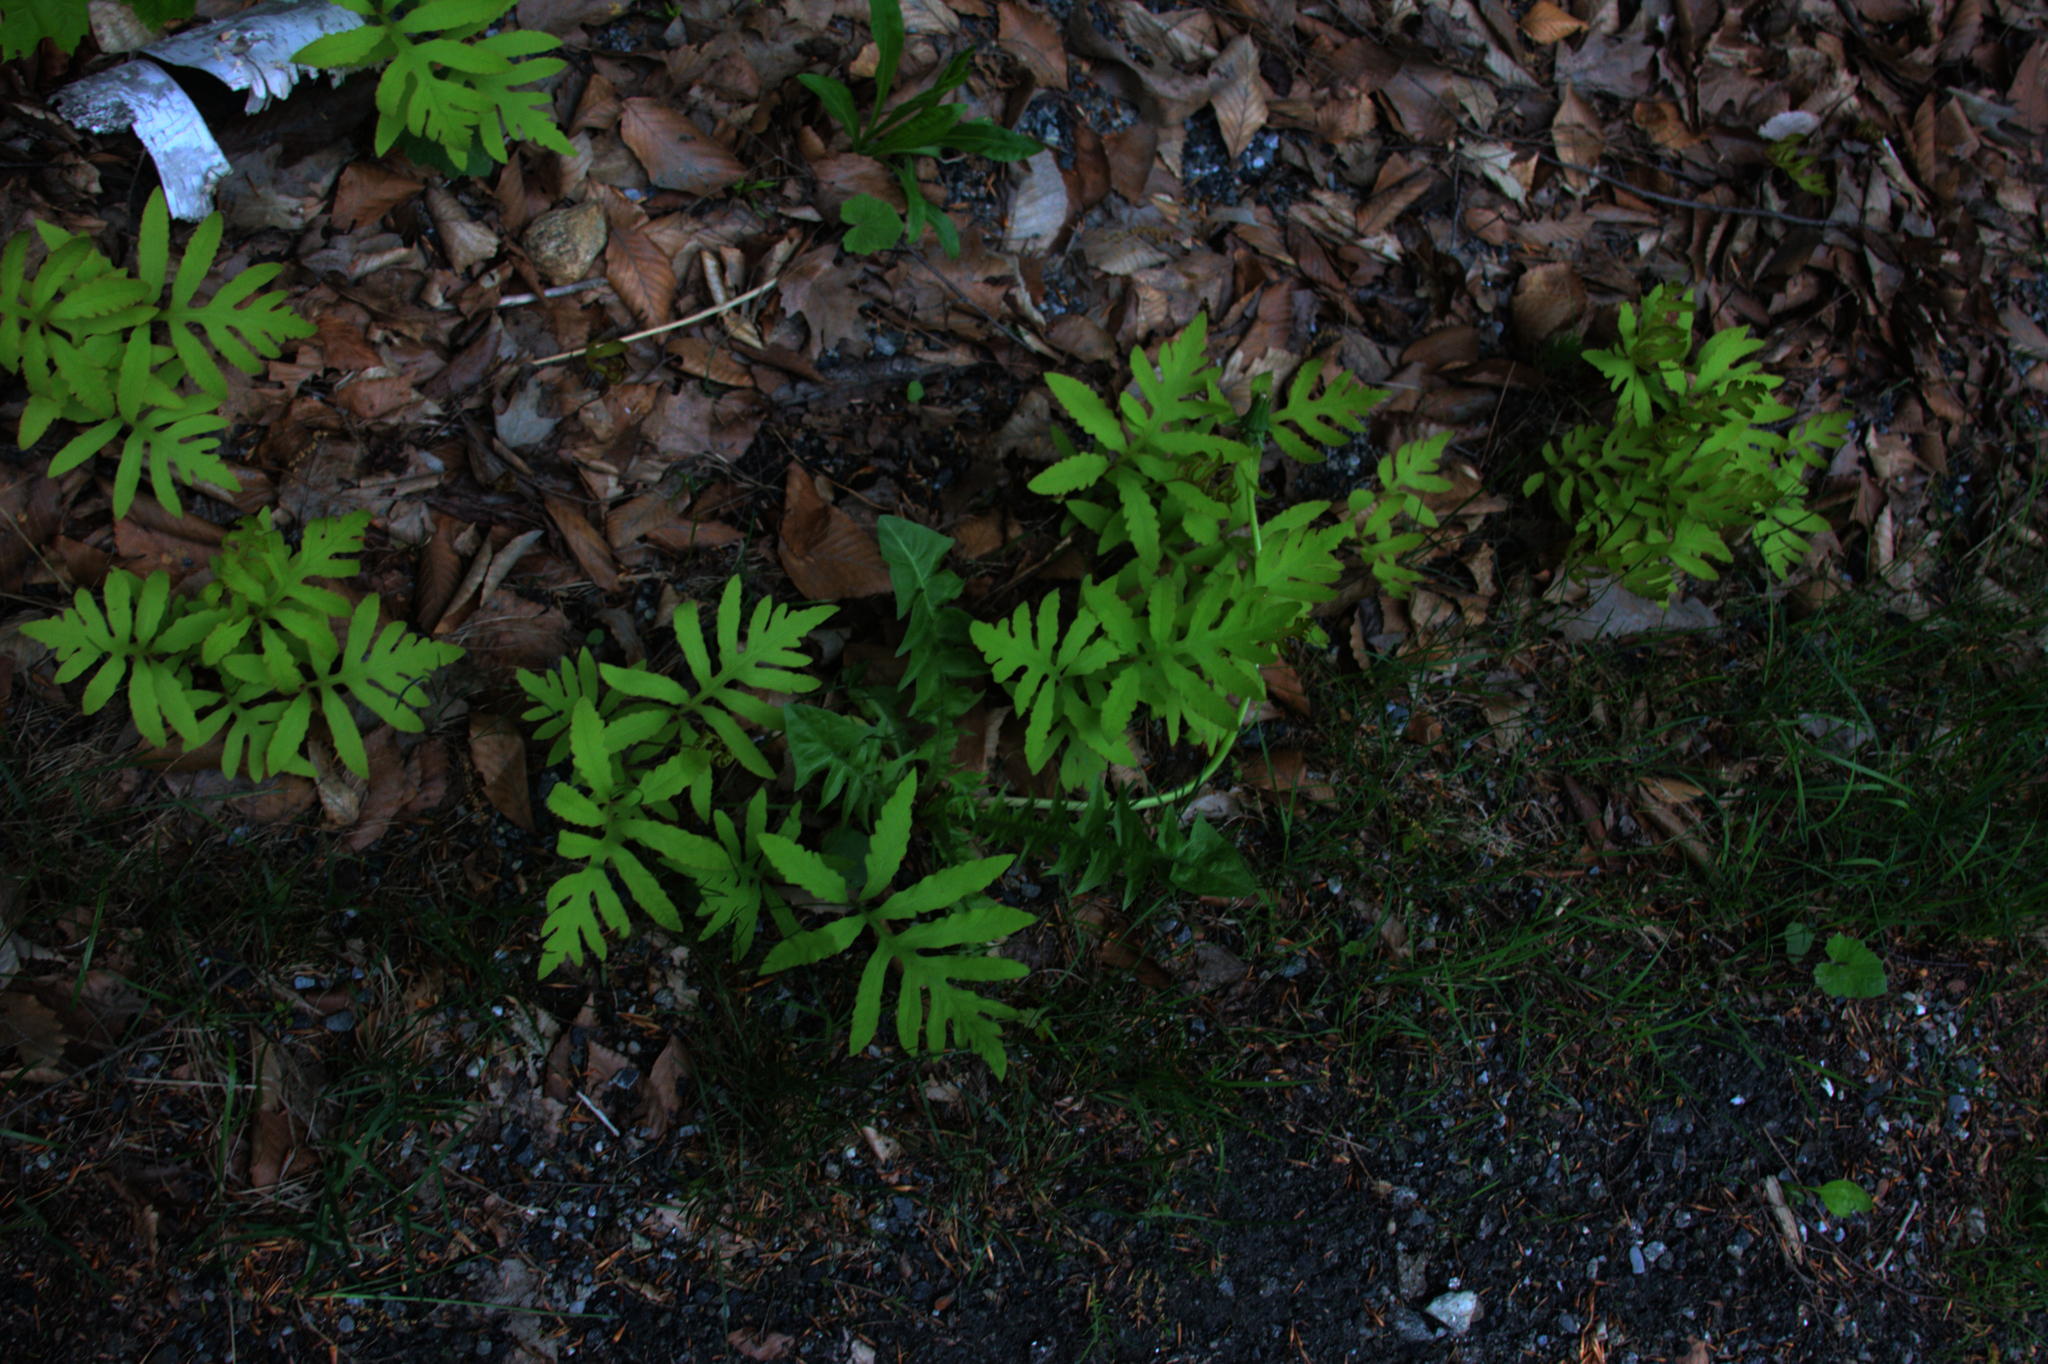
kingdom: Plantae
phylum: Tracheophyta
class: Polypodiopsida
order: Polypodiales
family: Onocleaceae
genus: Onoclea
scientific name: Onoclea sensibilis
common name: Sensitive fern
